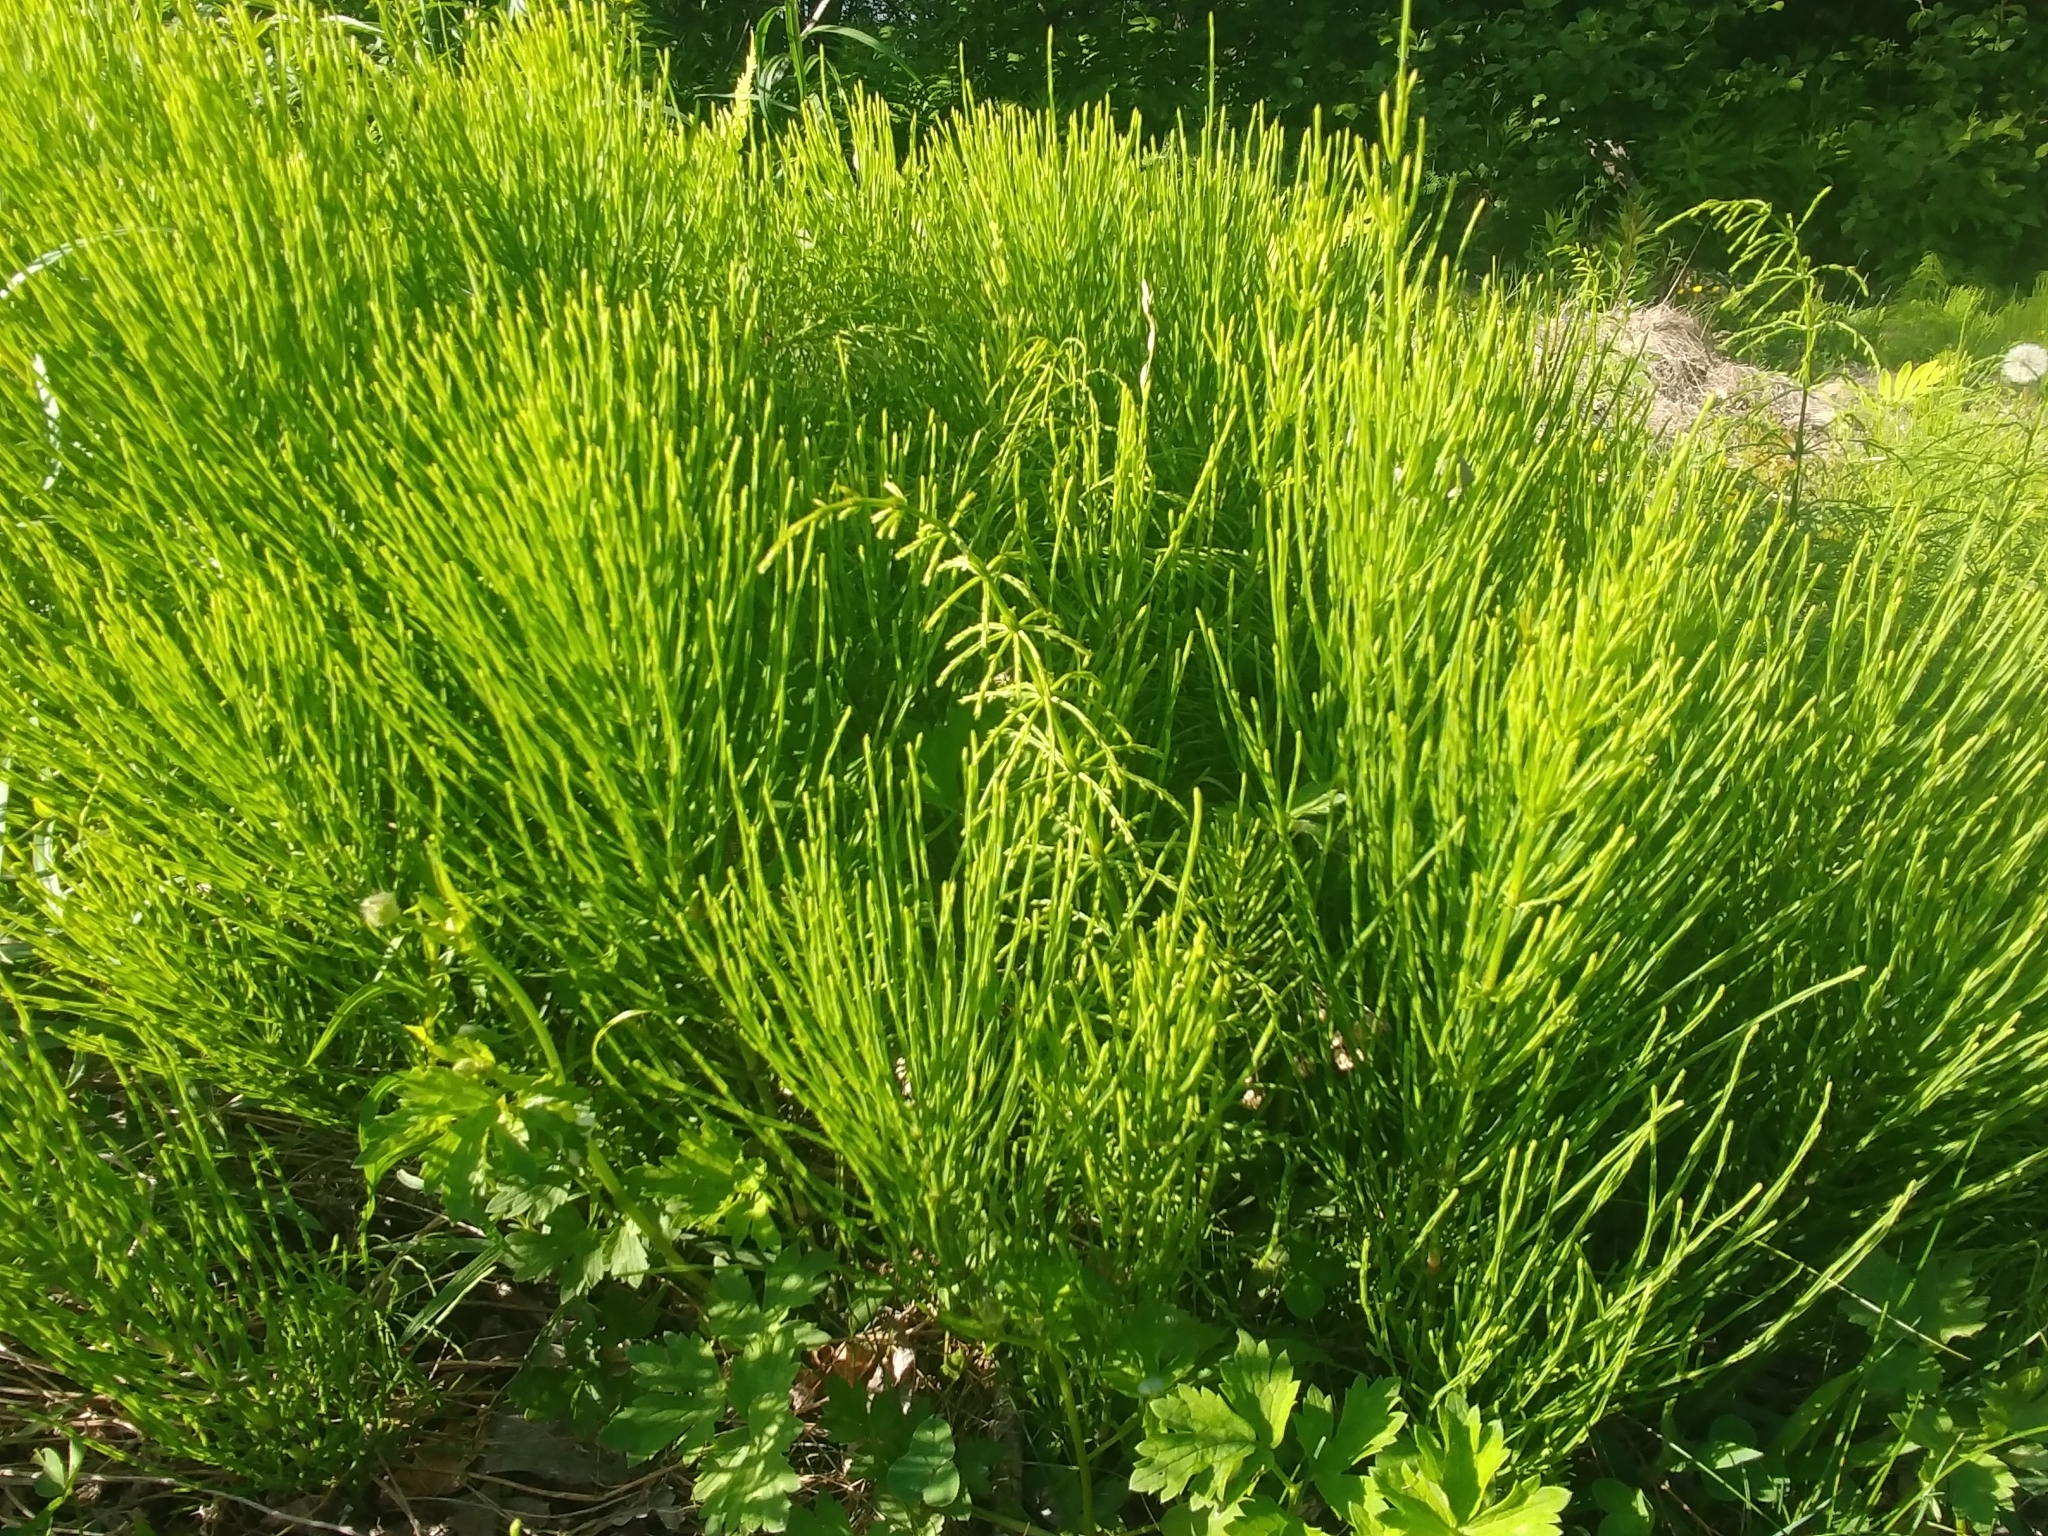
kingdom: Plantae
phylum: Tracheophyta
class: Polypodiopsida
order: Equisetales
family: Equisetaceae
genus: Equisetum
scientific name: Equisetum arvense
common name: Field horsetail
